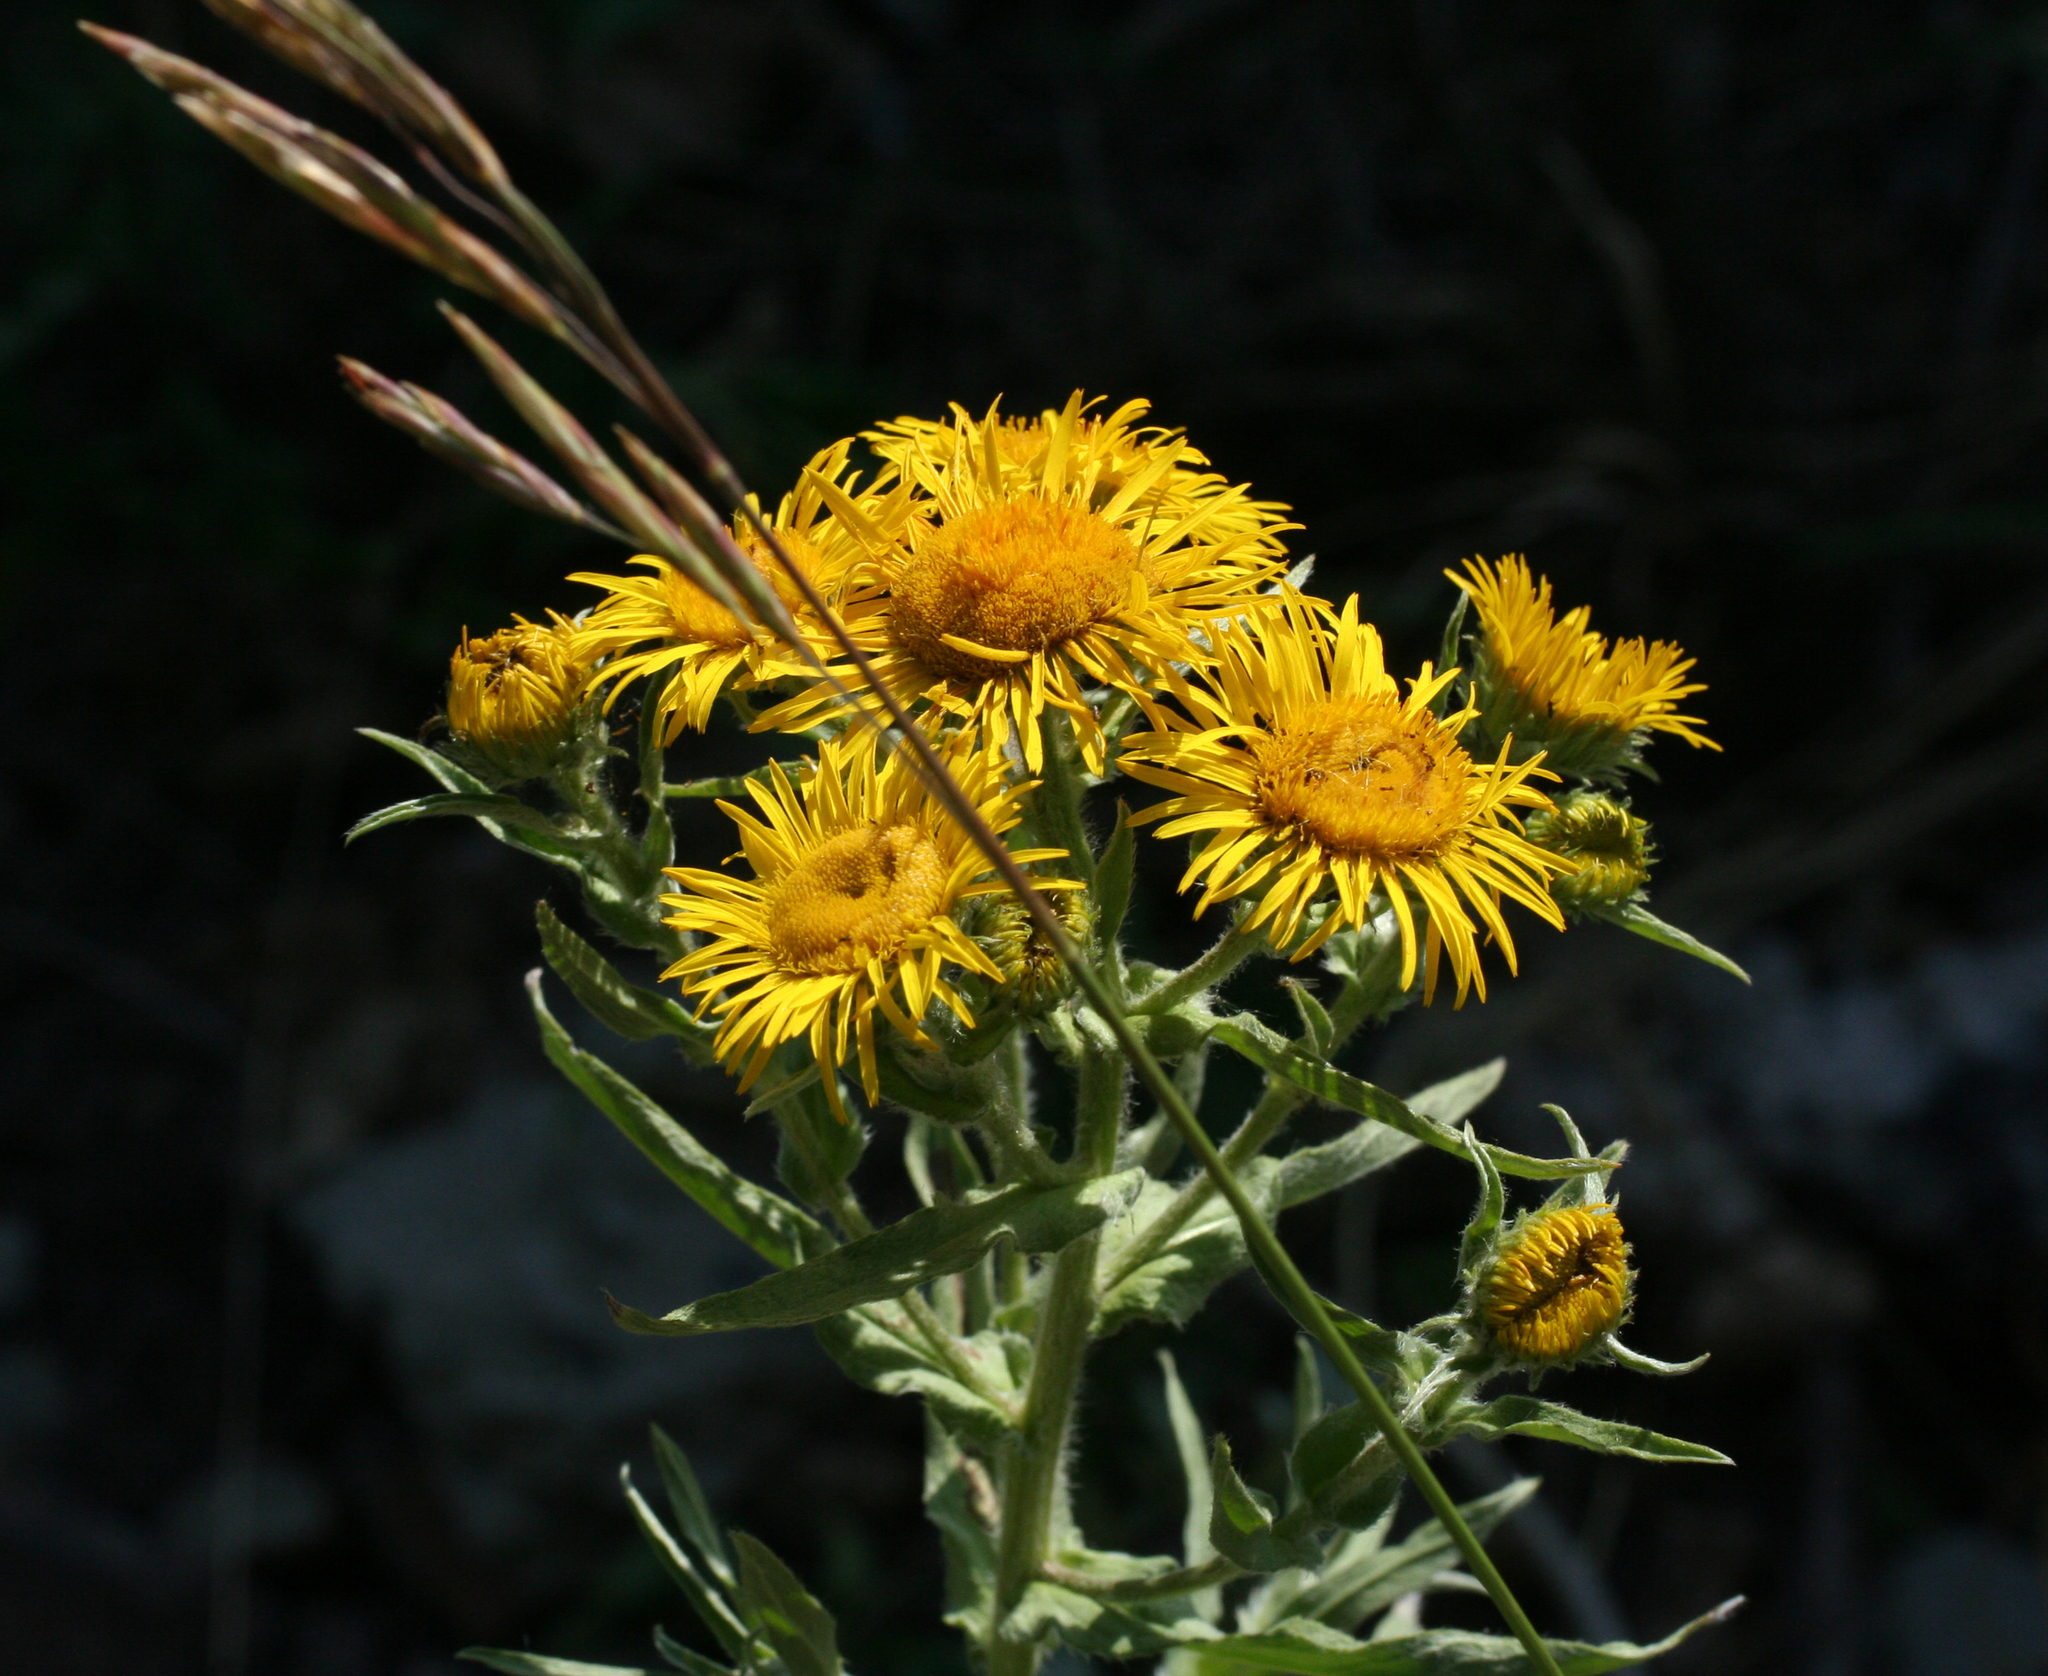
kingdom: Plantae
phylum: Tracheophyta
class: Magnoliopsida
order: Asterales
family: Asteraceae
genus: Pentanema
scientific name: Pentanema britannicum
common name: British elecampane
